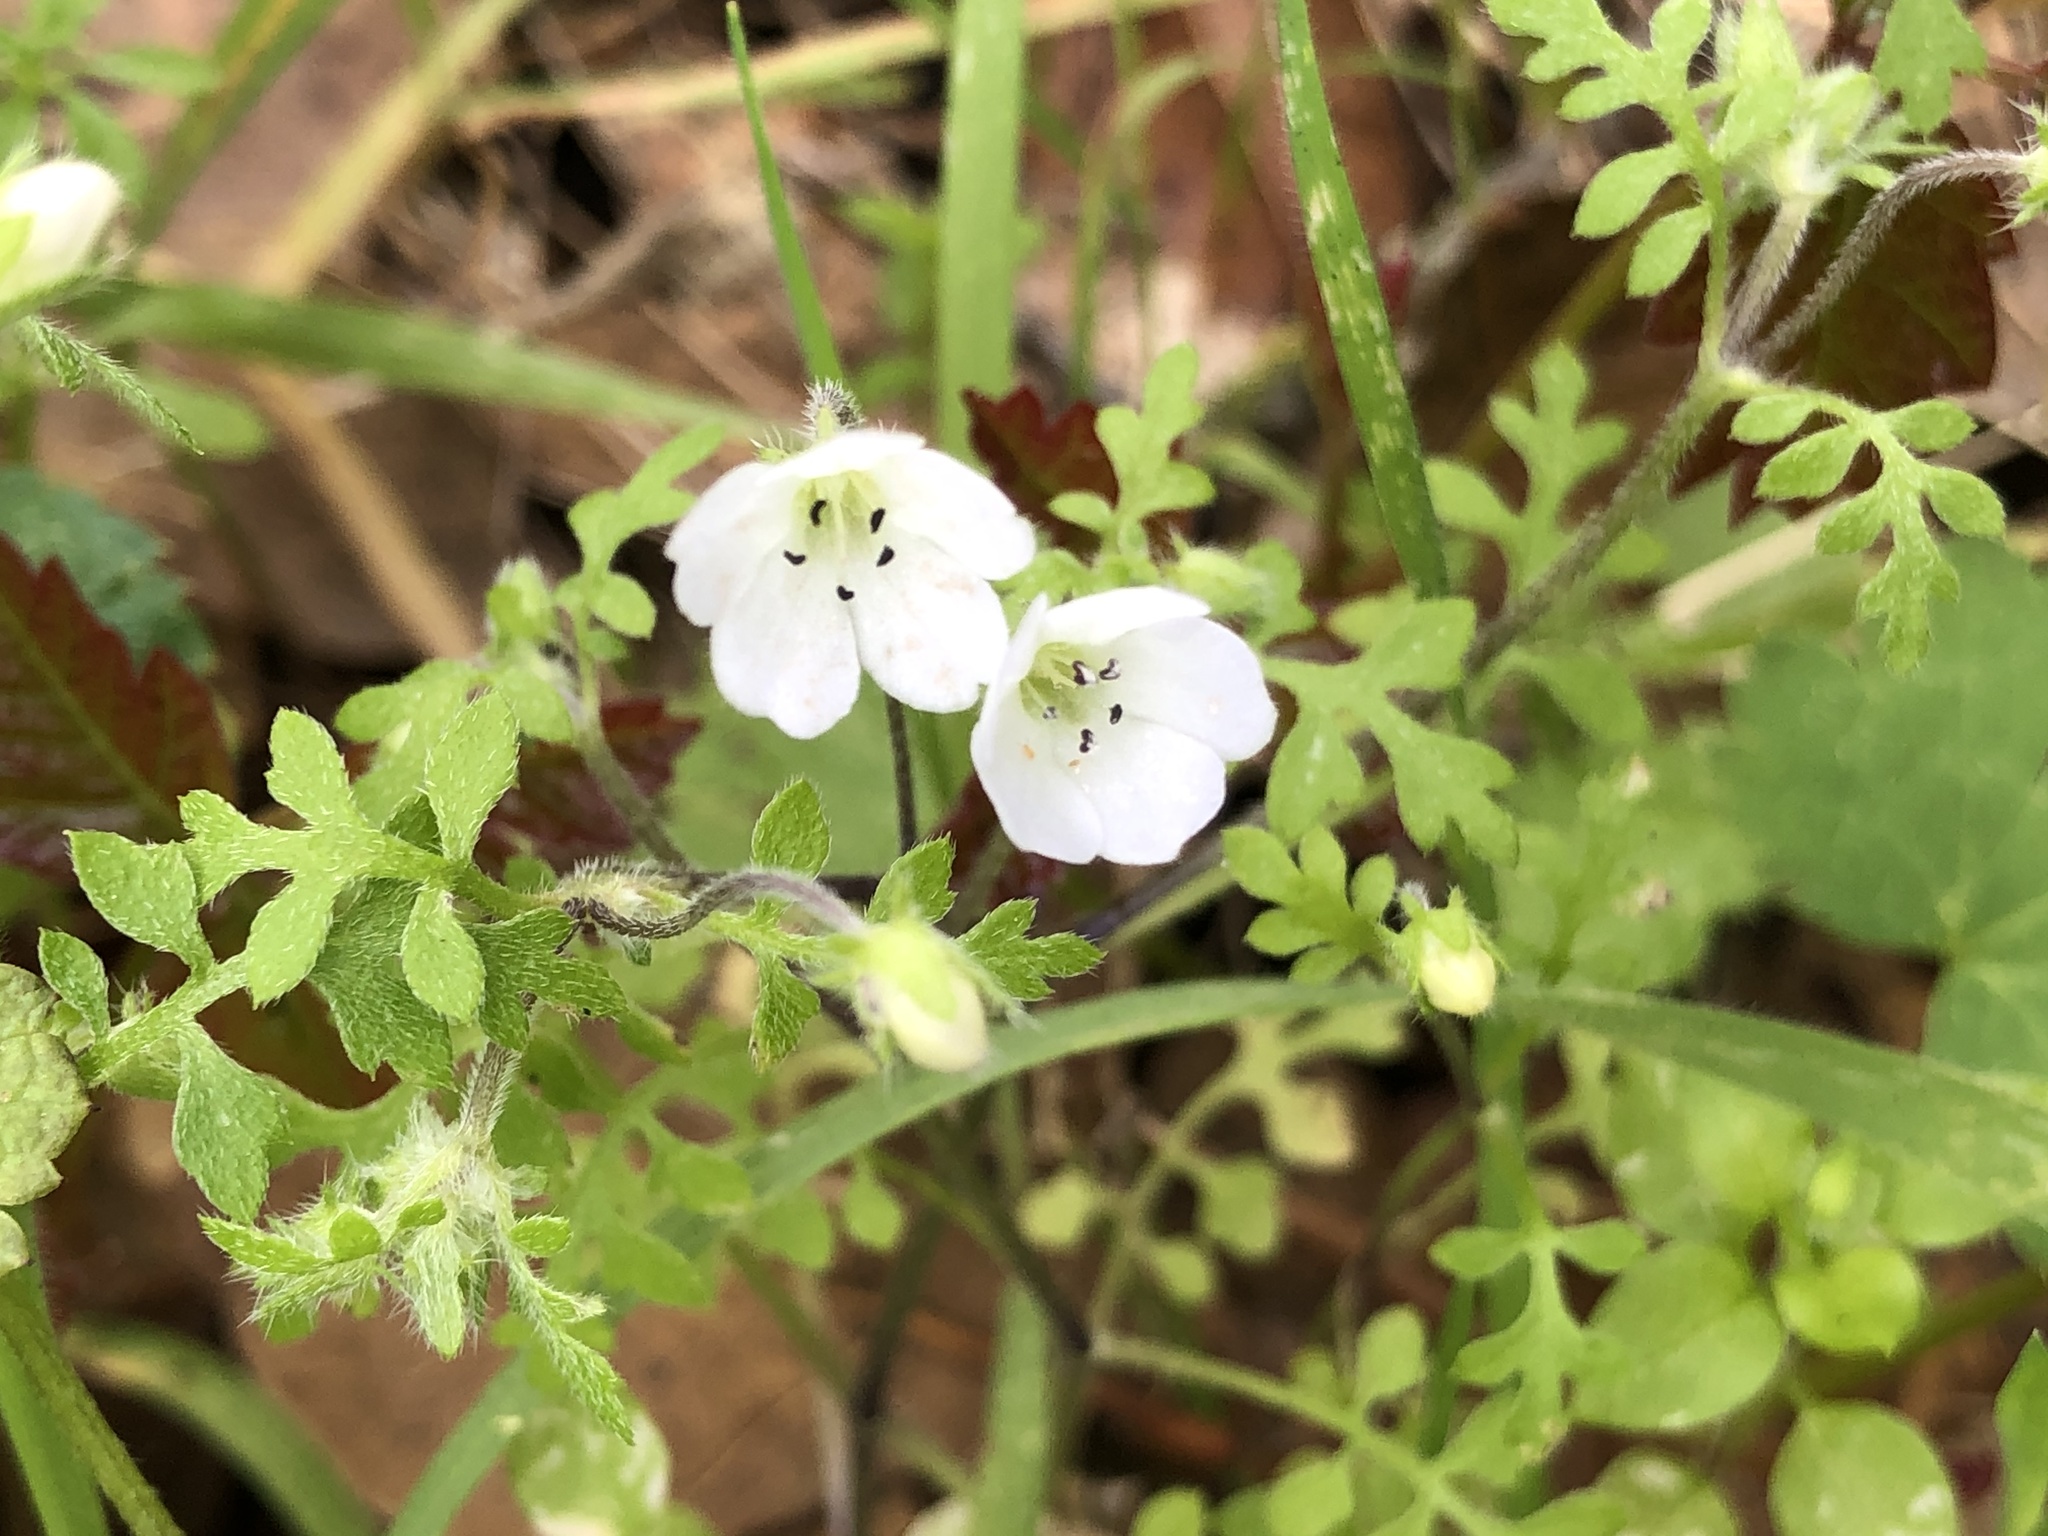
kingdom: Plantae
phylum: Tracheophyta
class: Magnoliopsida
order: Boraginales
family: Hydrophyllaceae
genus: Nemophila
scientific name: Nemophila heterophylla
